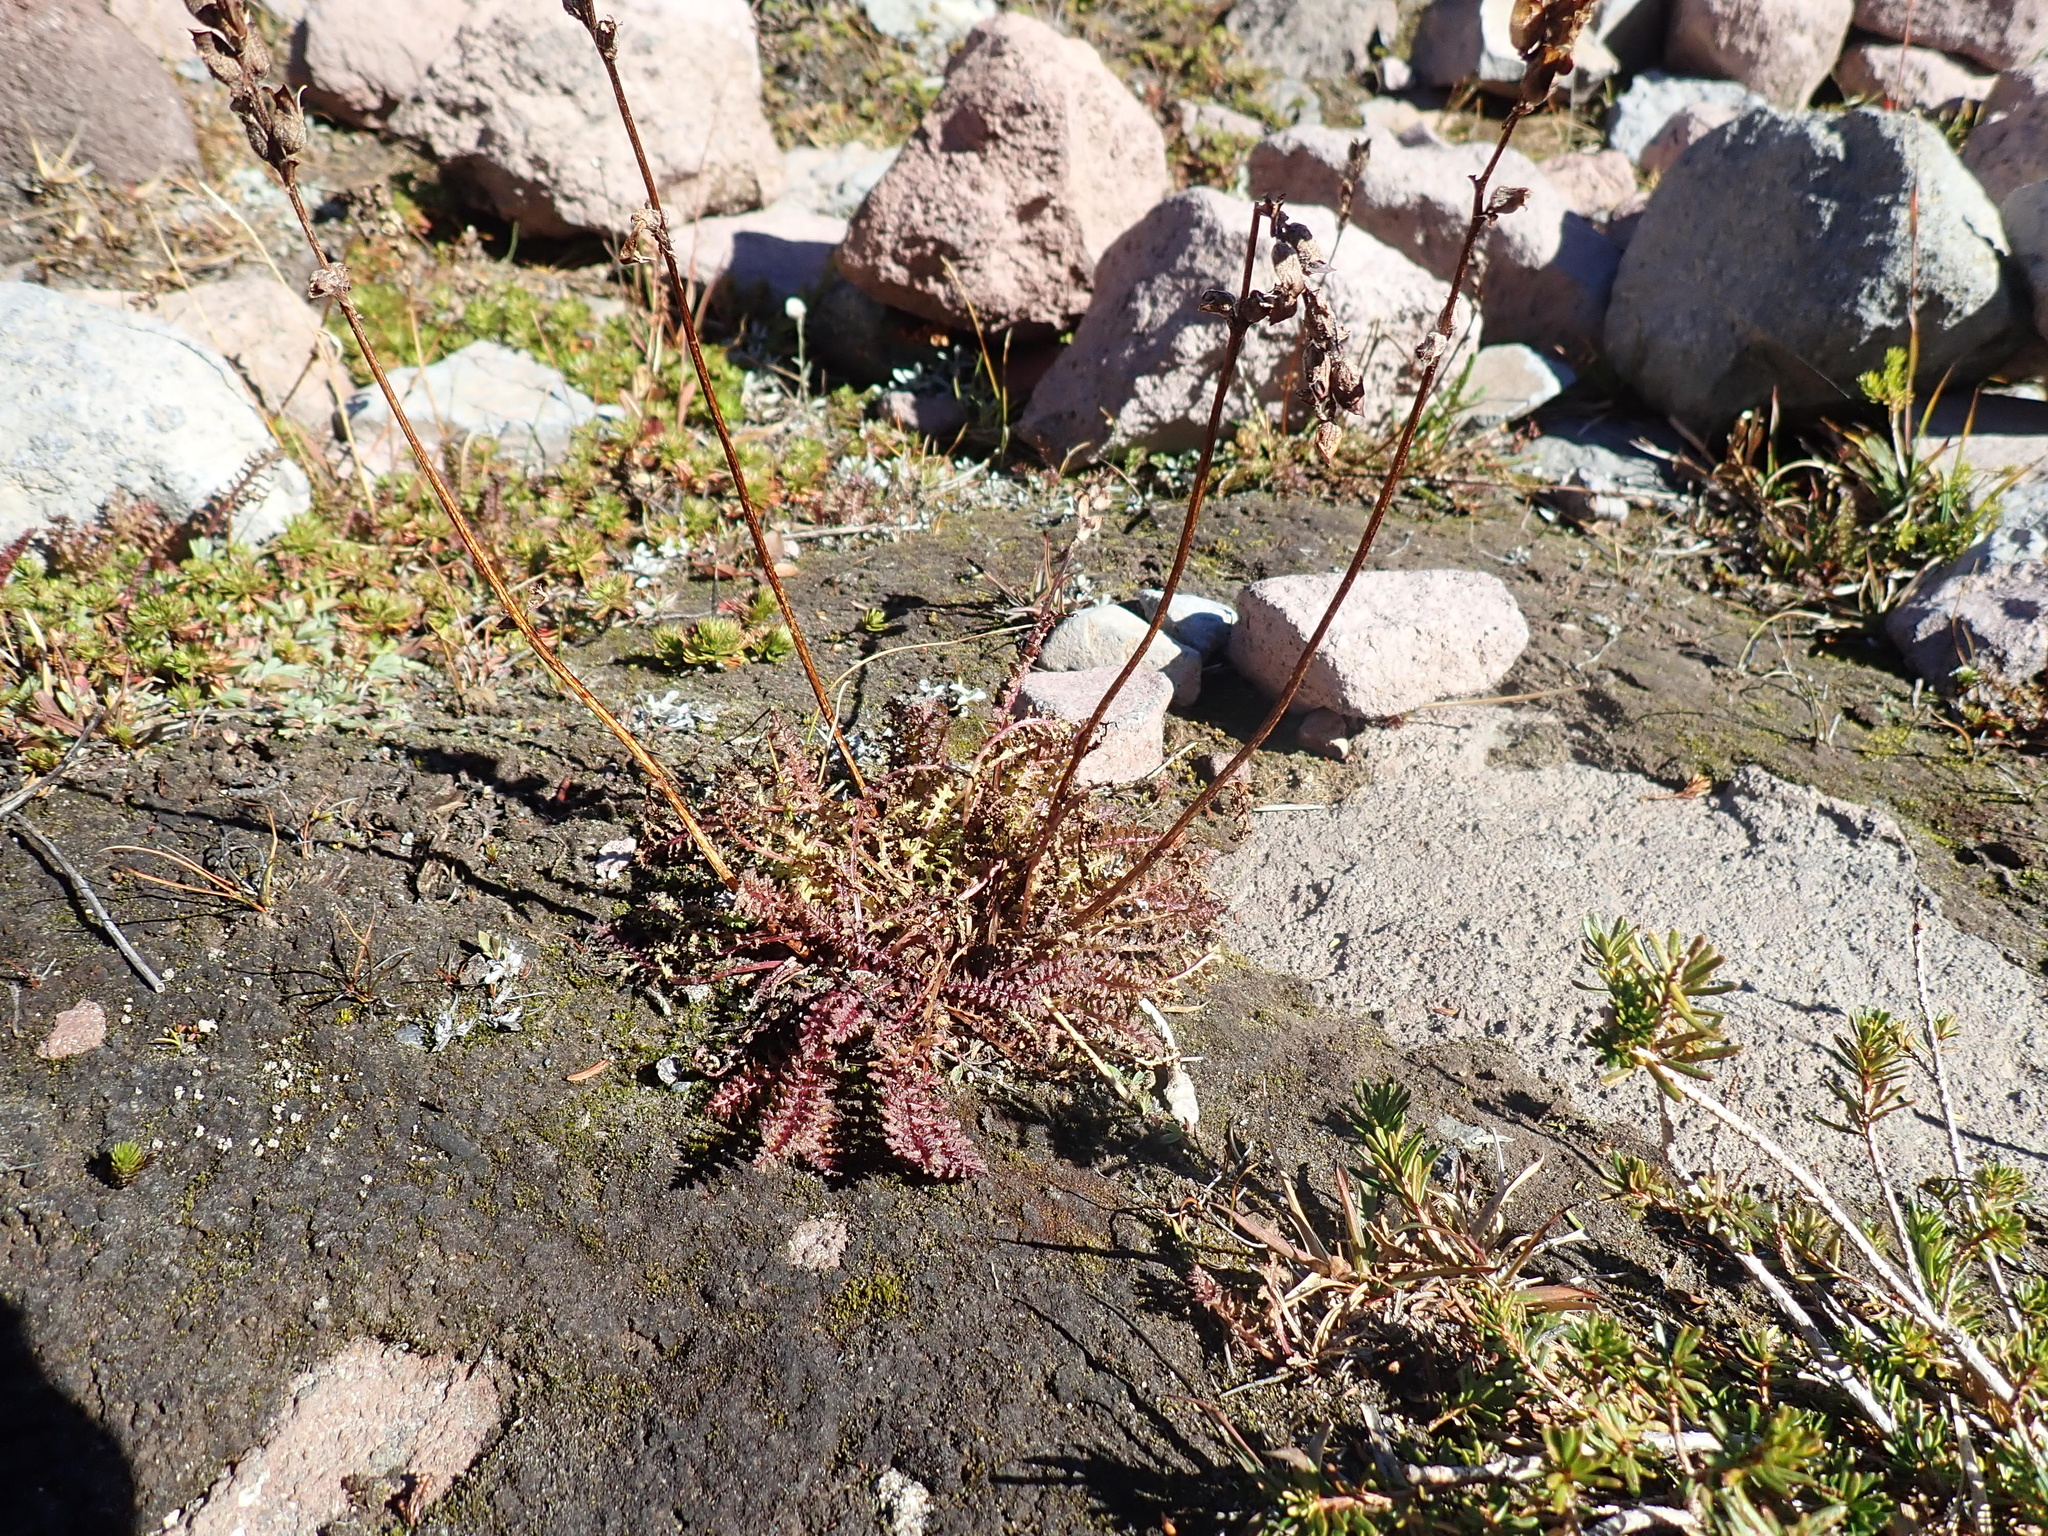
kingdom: Plantae
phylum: Tracheophyta
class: Magnoliopsida
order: Lamiales
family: Orobanchaceae
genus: Pedicularis
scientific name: Pedicularis ornithorhynchos
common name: Bird's-beak lousewort
